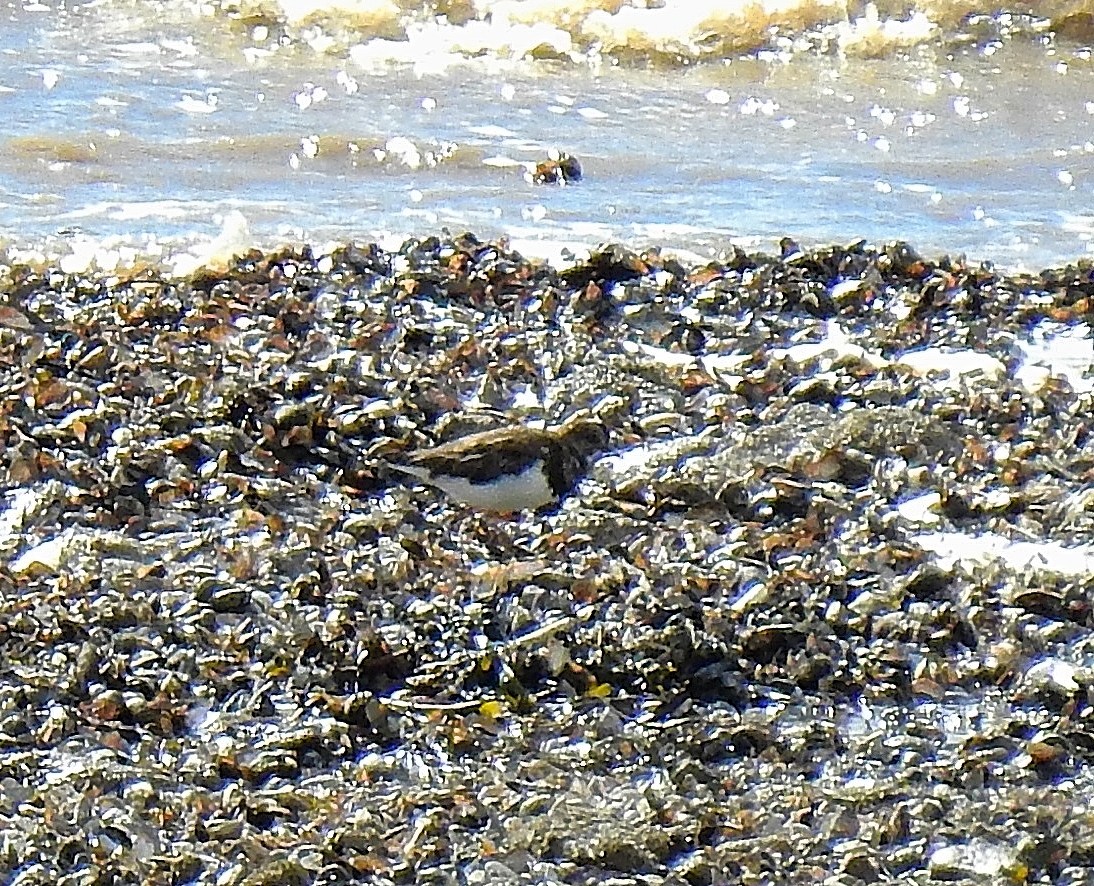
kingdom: Animalia
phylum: Chordata
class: Aves
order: Charadriiformes
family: Scolopacidae
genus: Arenaria
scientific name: Arenaria interpres
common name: Ruddy turnstone
